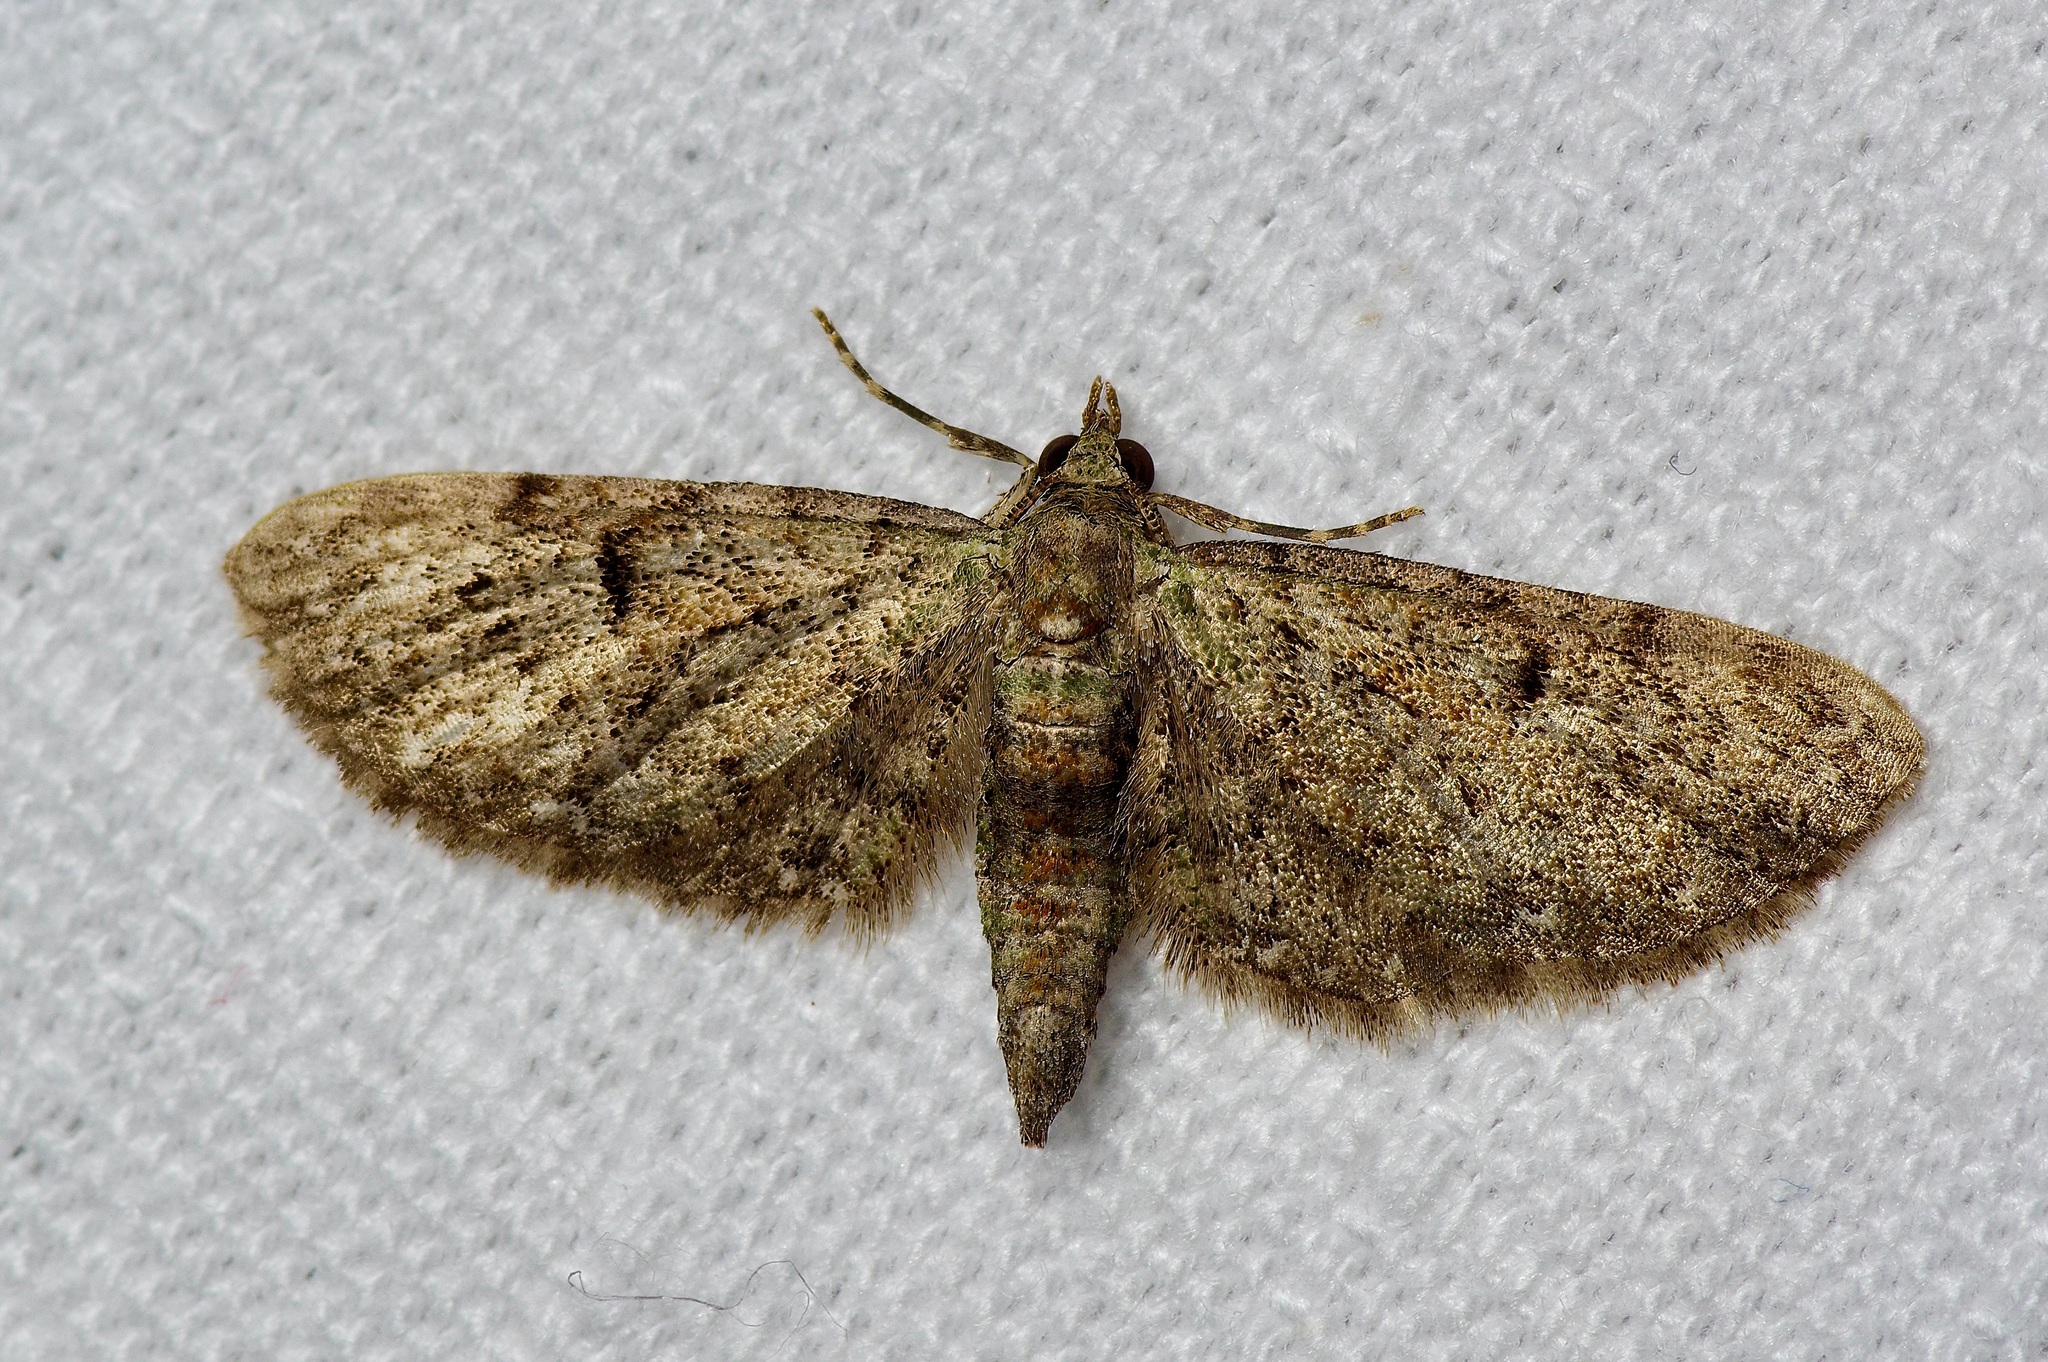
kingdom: Animalia
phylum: Arthropoda
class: Insecta
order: Lepidoptera
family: Geometridae
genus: Eupithecia
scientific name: Eupithecia miserulata
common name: Common eupithecia
